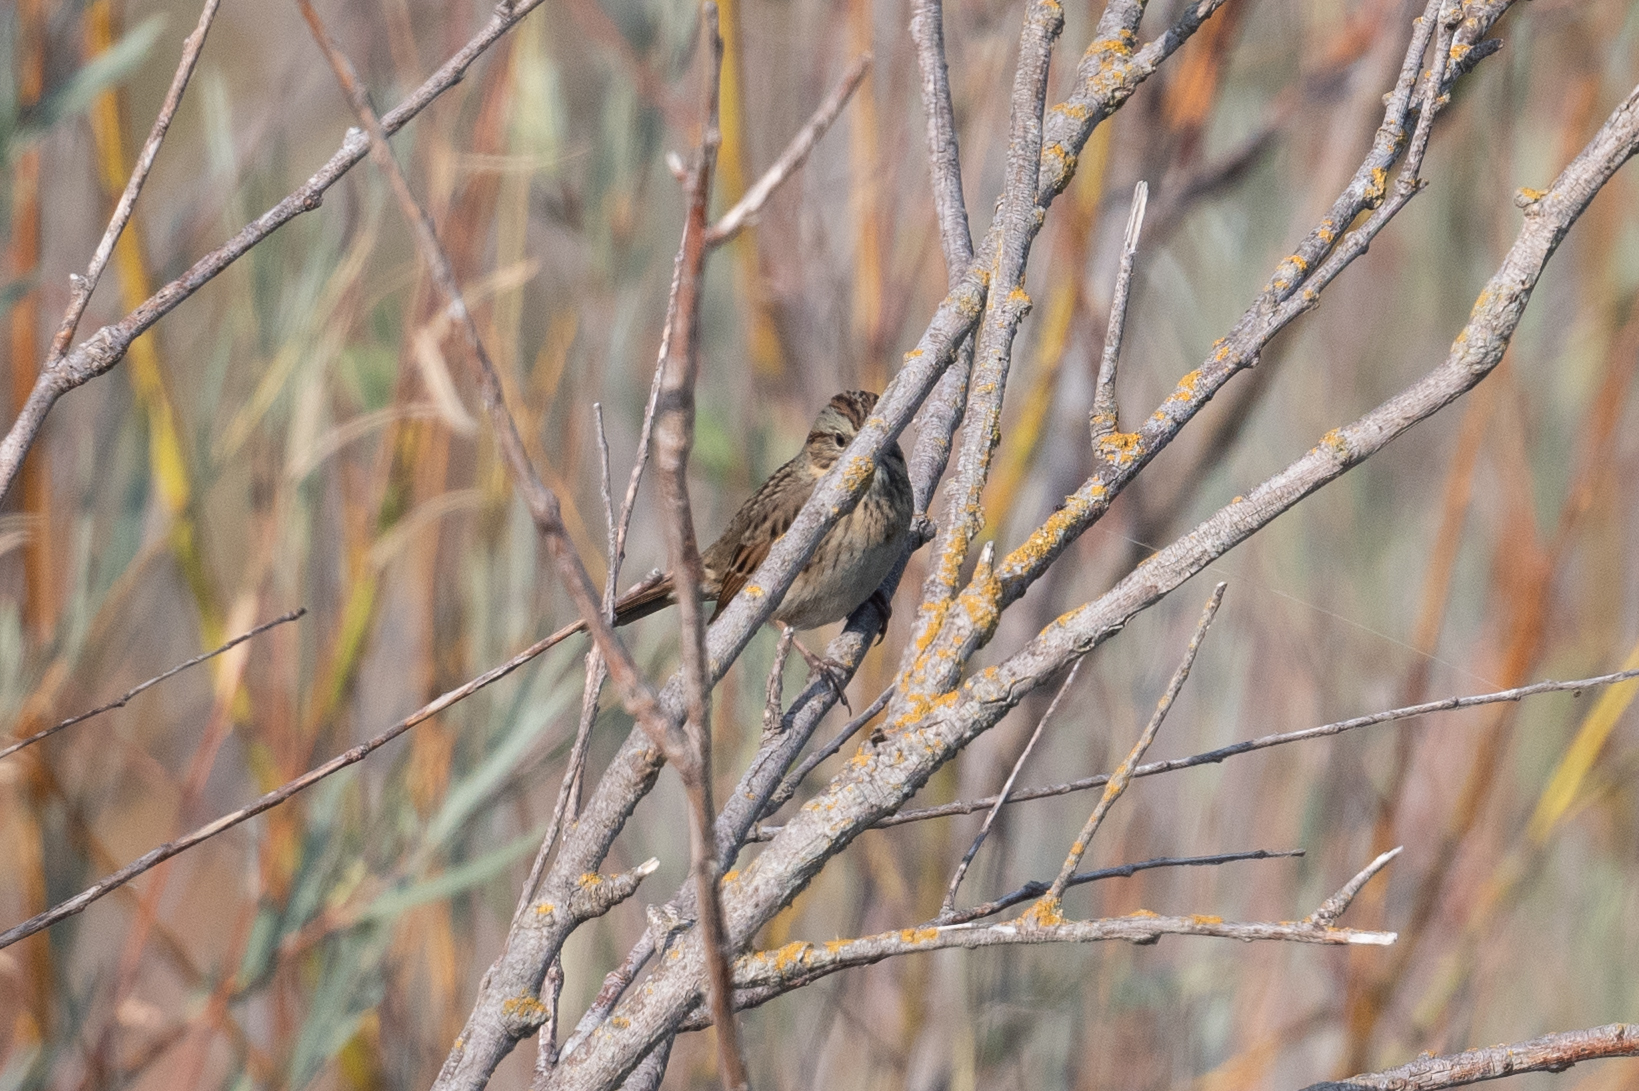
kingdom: Animalia
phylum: Chordata
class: Aves
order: Passeriformes
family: Passerellidae
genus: Melospiza
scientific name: Melospiza lincolnii
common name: Lincoln's sparrow
